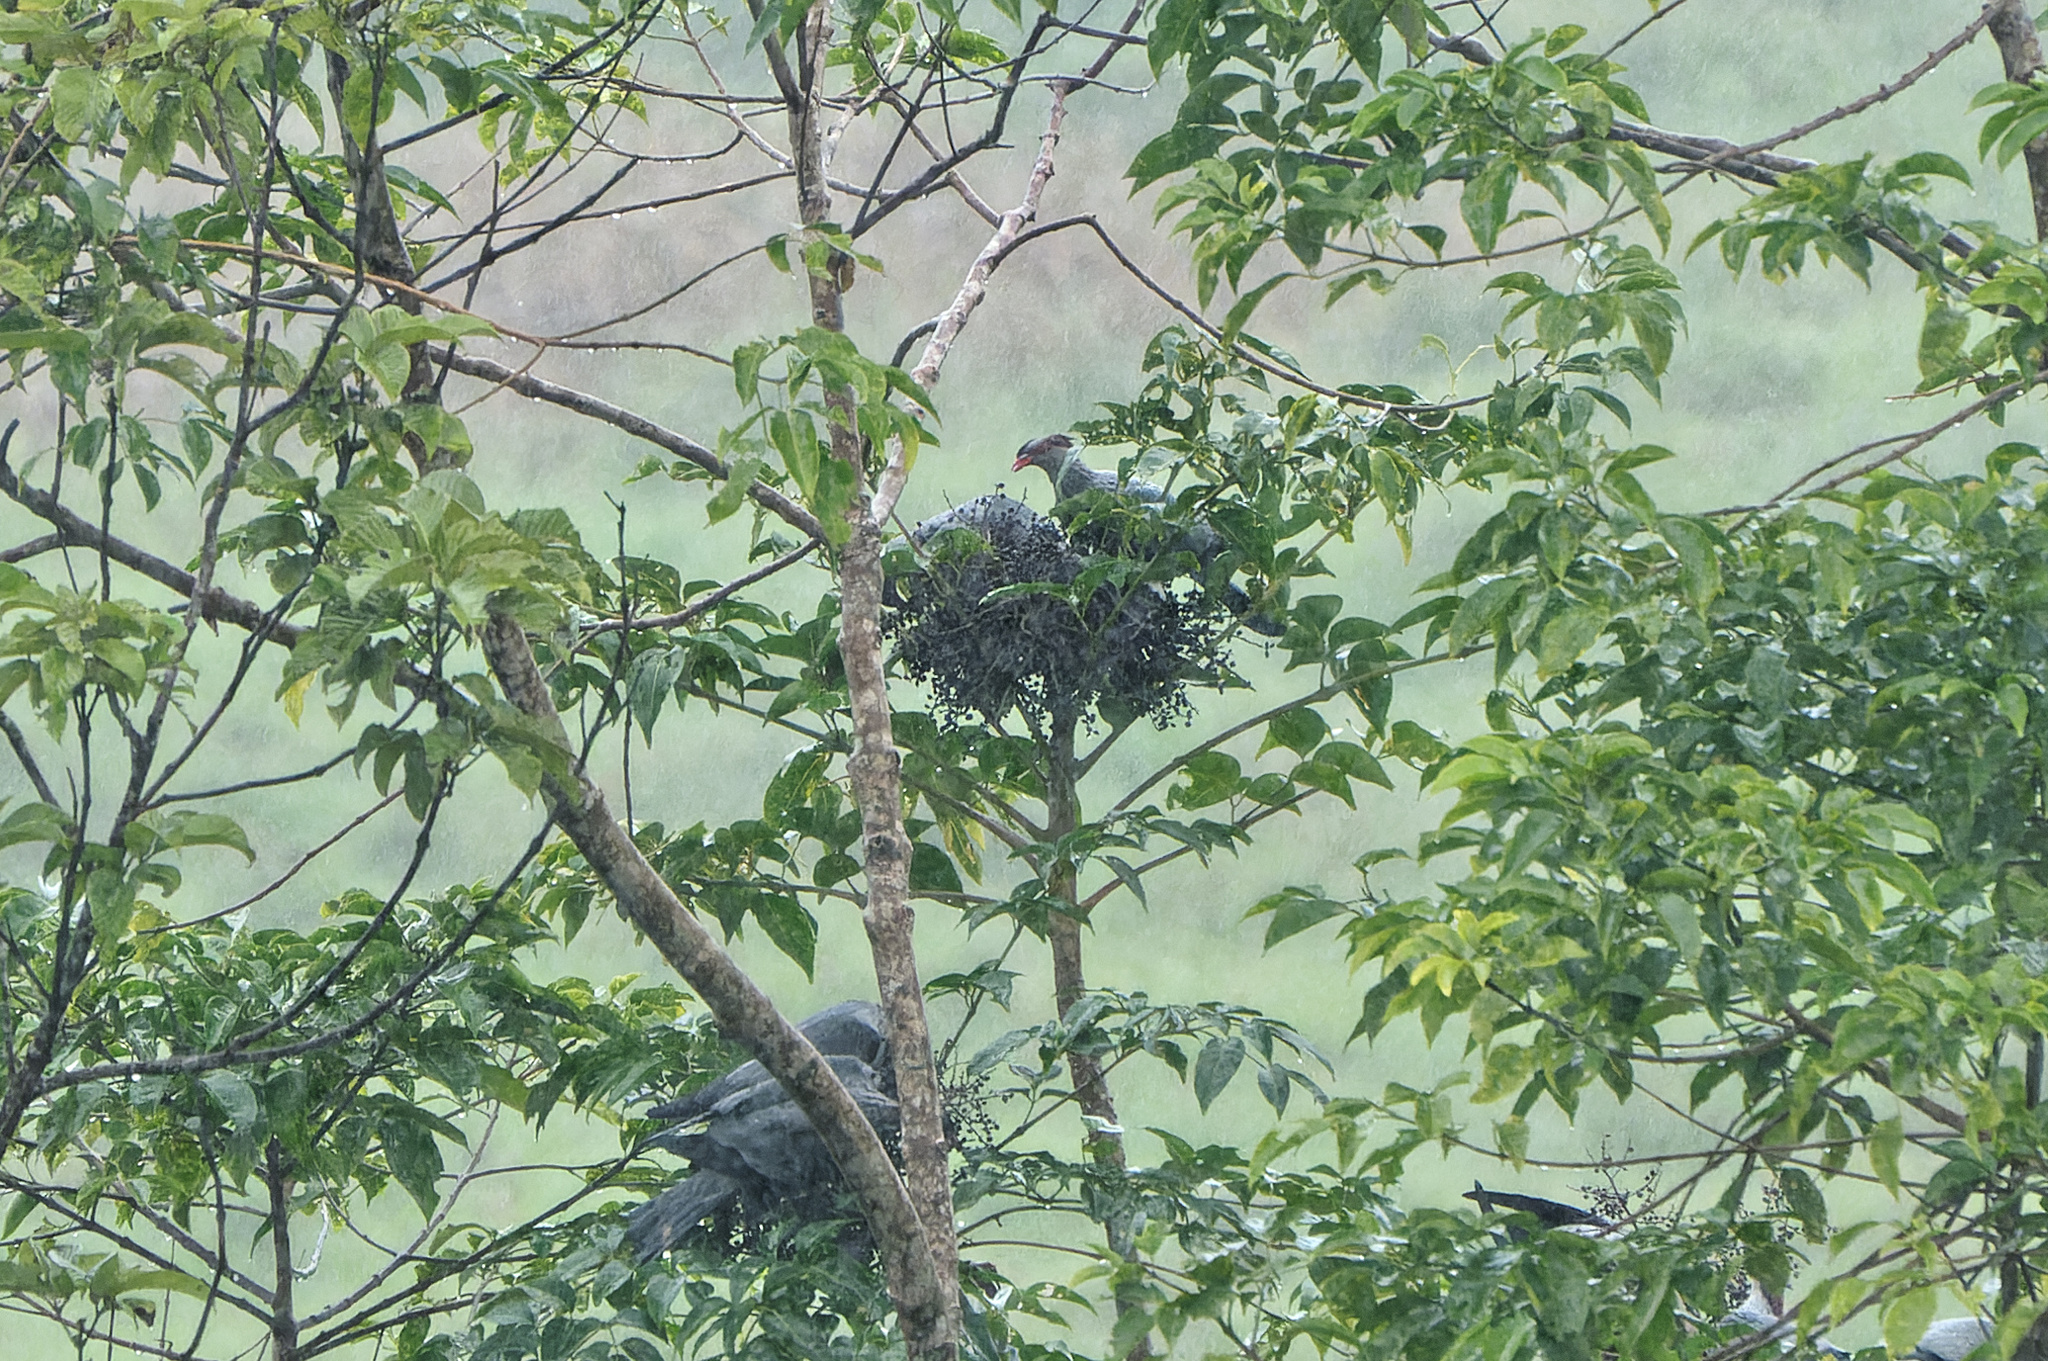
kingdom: Animalia
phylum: Chordata
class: Aves
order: Columbiformes
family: Columbidae
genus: Lopholaimus
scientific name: Lopholaimus antarcticus
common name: Topknot pigeon
